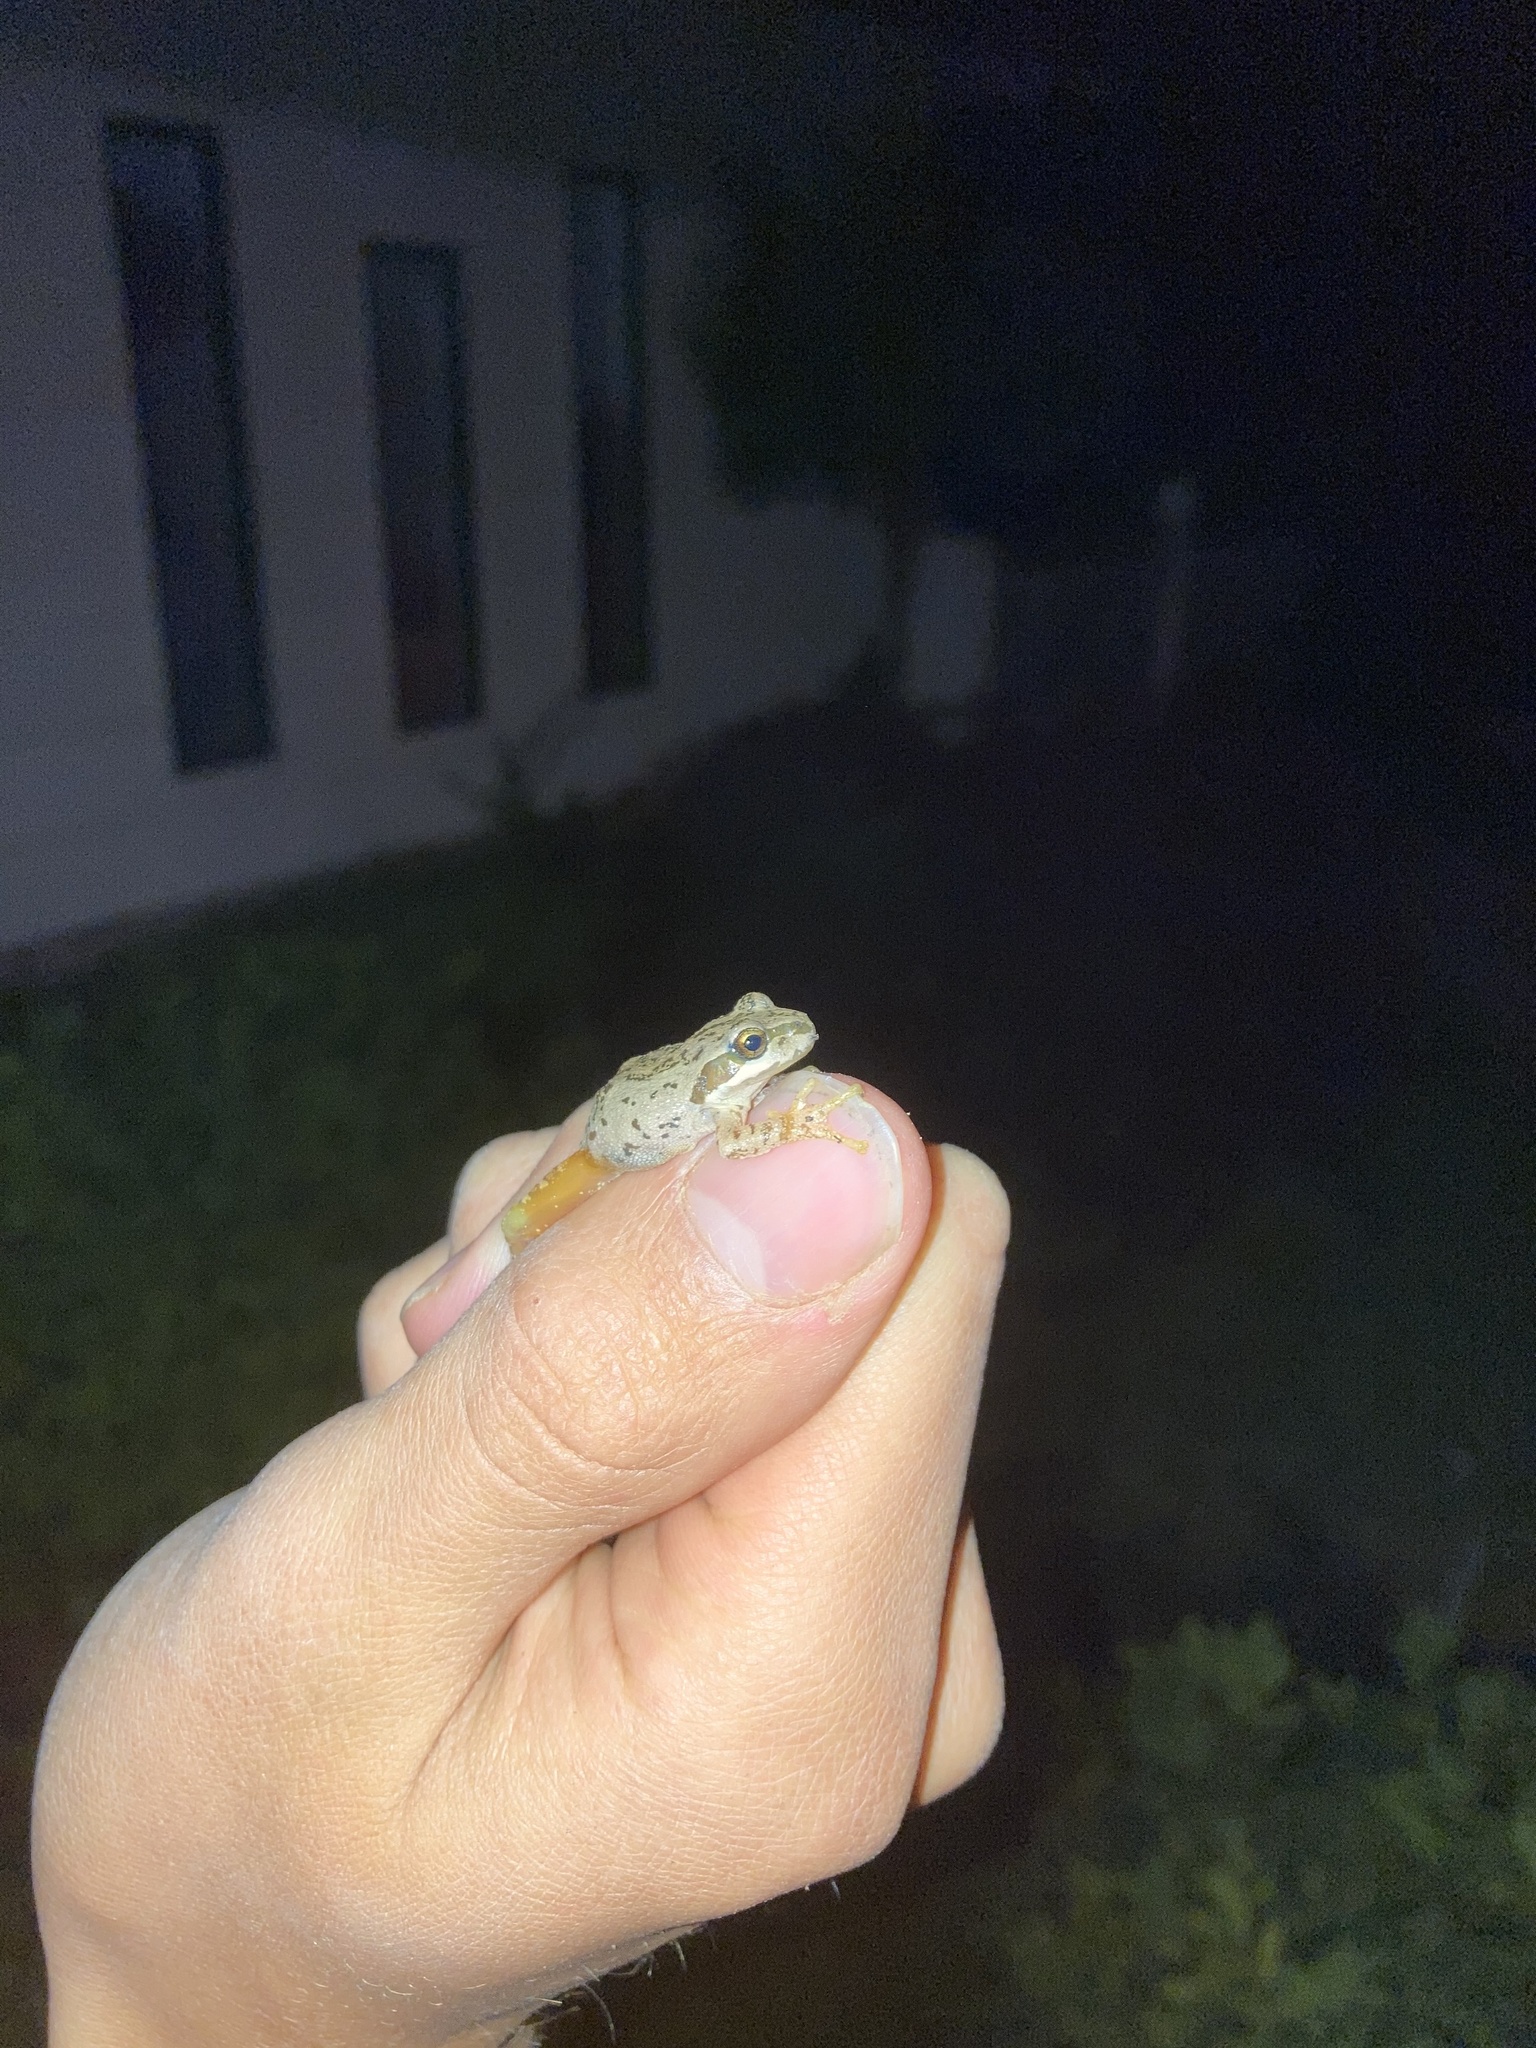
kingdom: Animalia
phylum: Chordata
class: Amphibia
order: Anura
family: Hylidae
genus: Pseudacris
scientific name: Pseudacris regilla
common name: Pacific chorus frog
